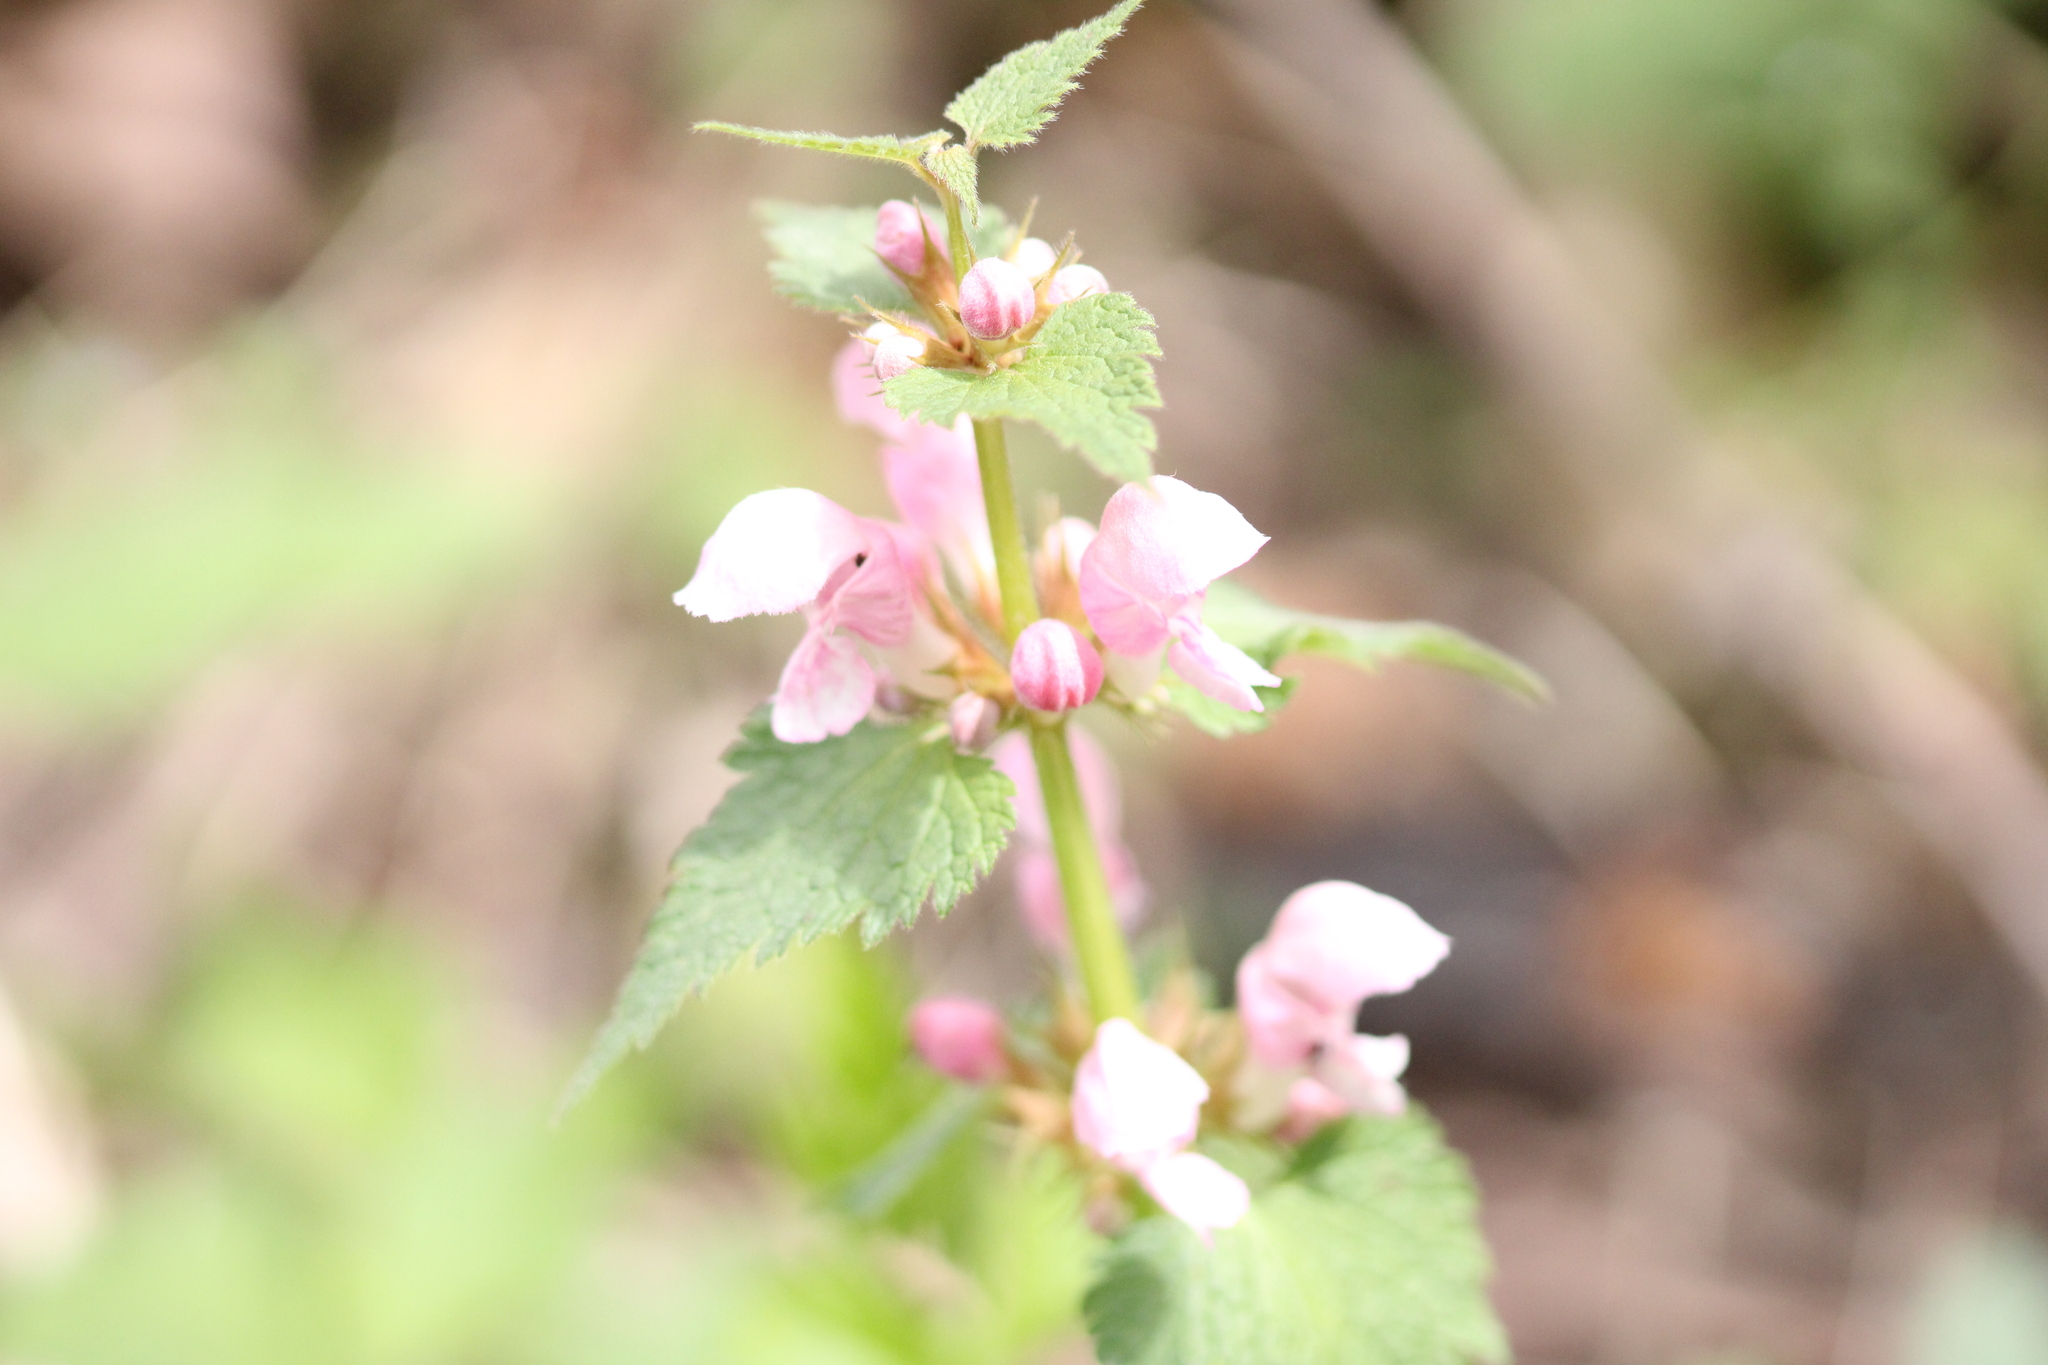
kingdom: Plantae
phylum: Tracheophyta
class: Magnoliopsida
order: Lamiales
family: Lamiaceae
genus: Lamium
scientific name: Lamium maculatum
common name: Spotted dead-nettle
